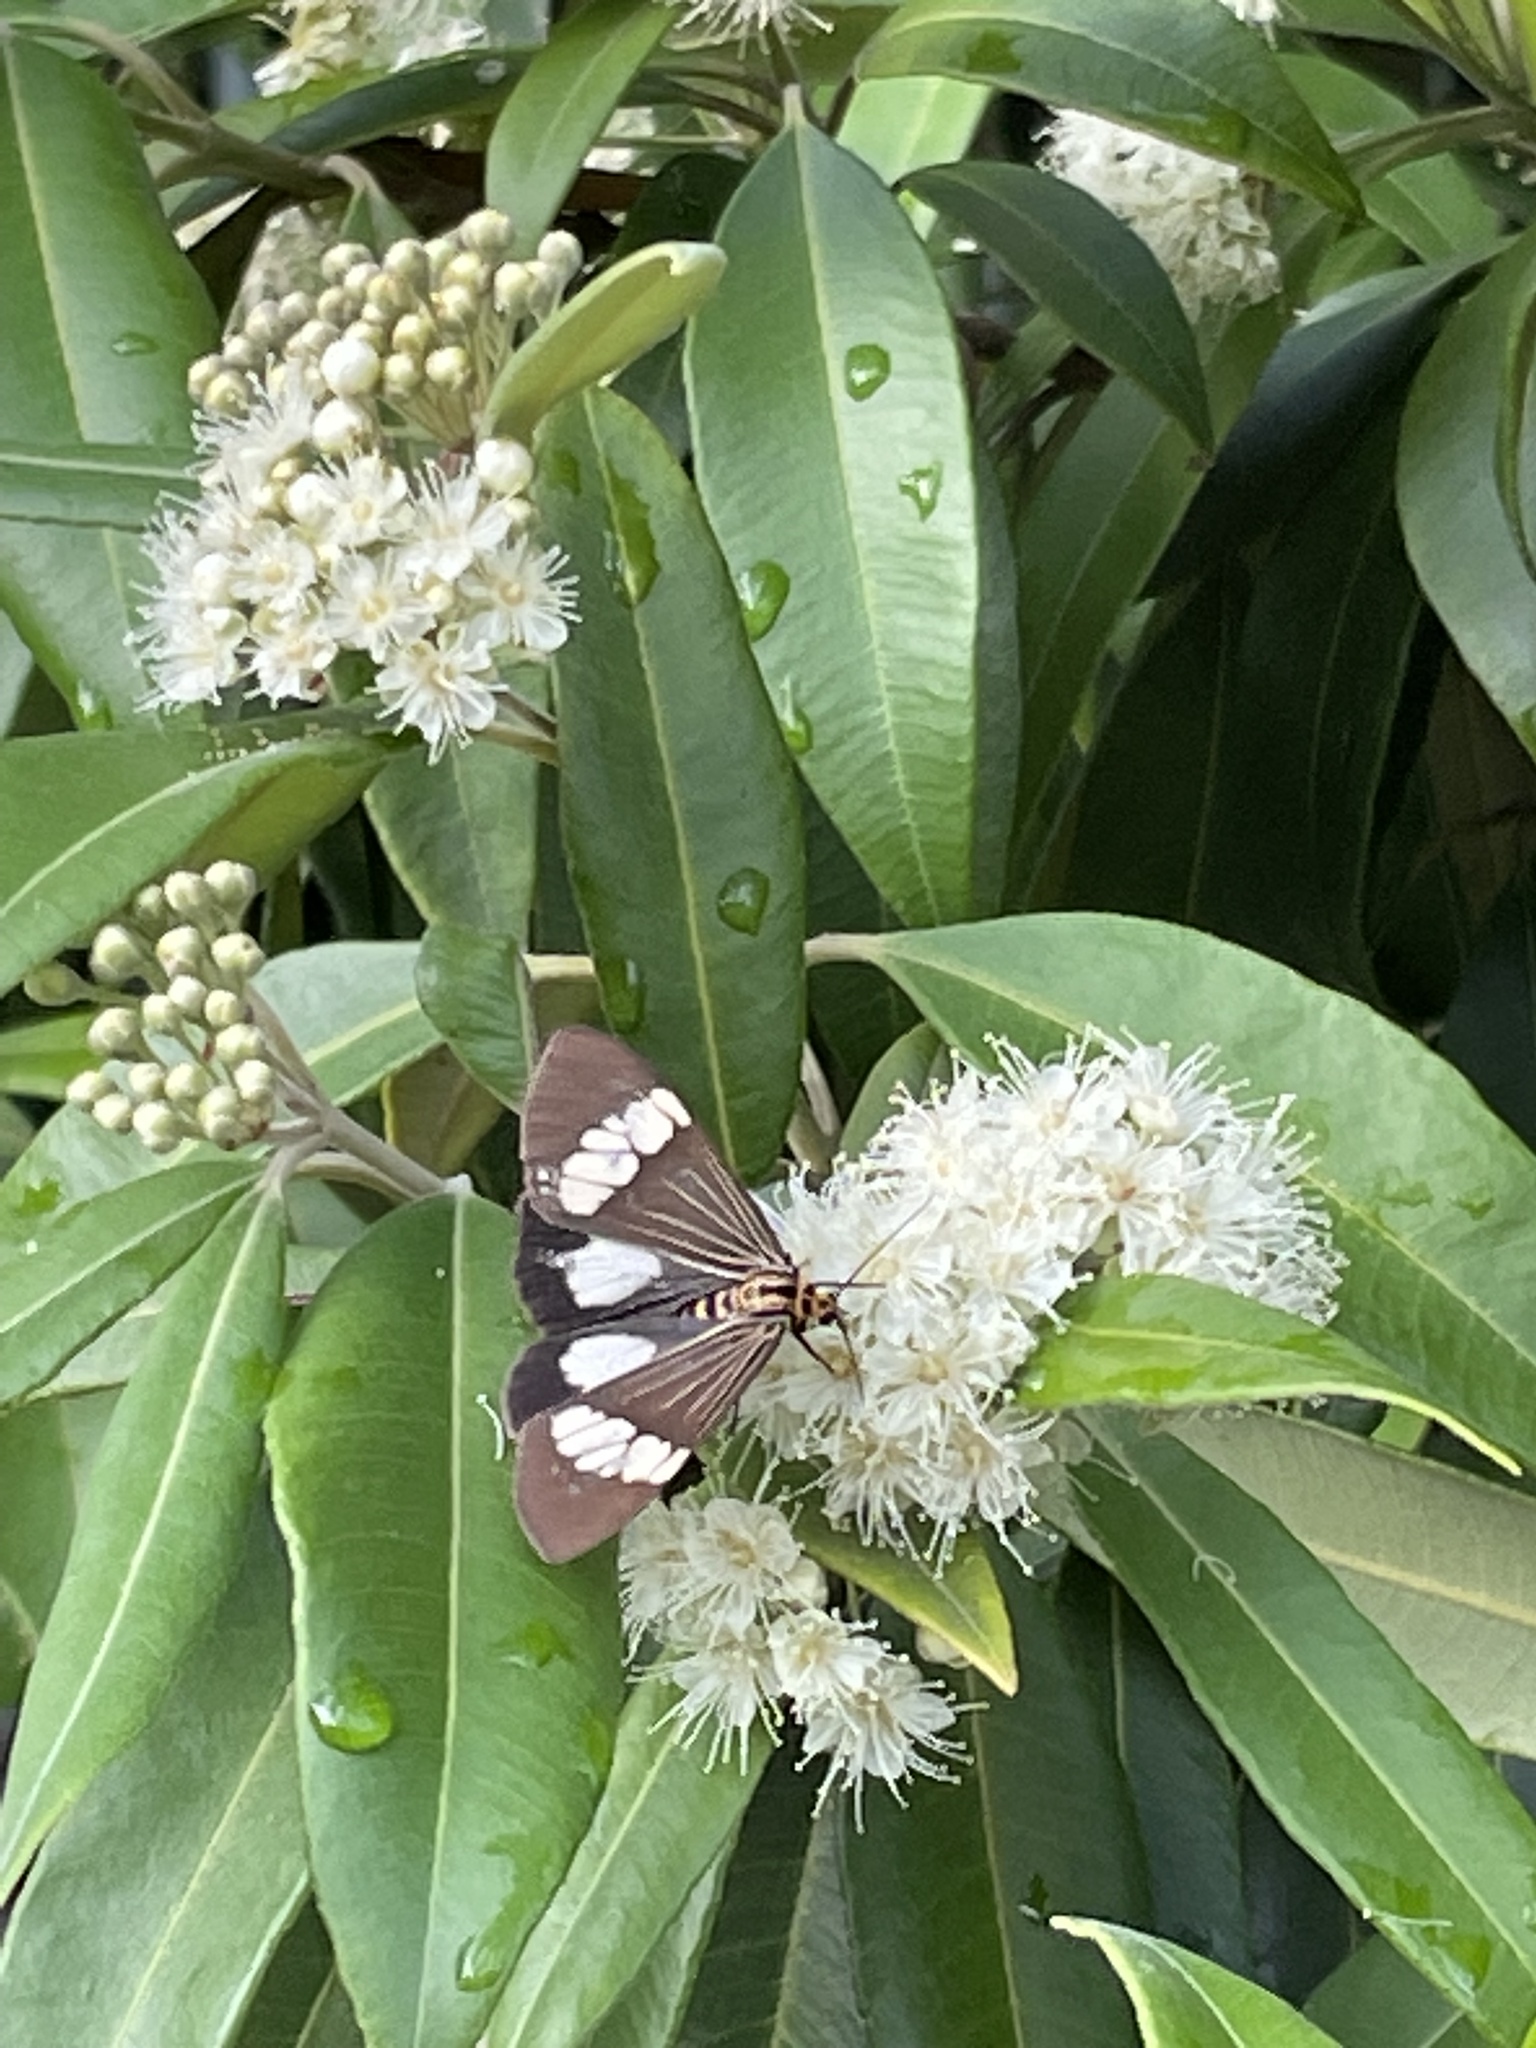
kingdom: Animalia
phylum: Arthropoda
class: Insecta
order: Lepidoptera
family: Erebidae
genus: Nyctemera
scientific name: Nyctemera baulus
